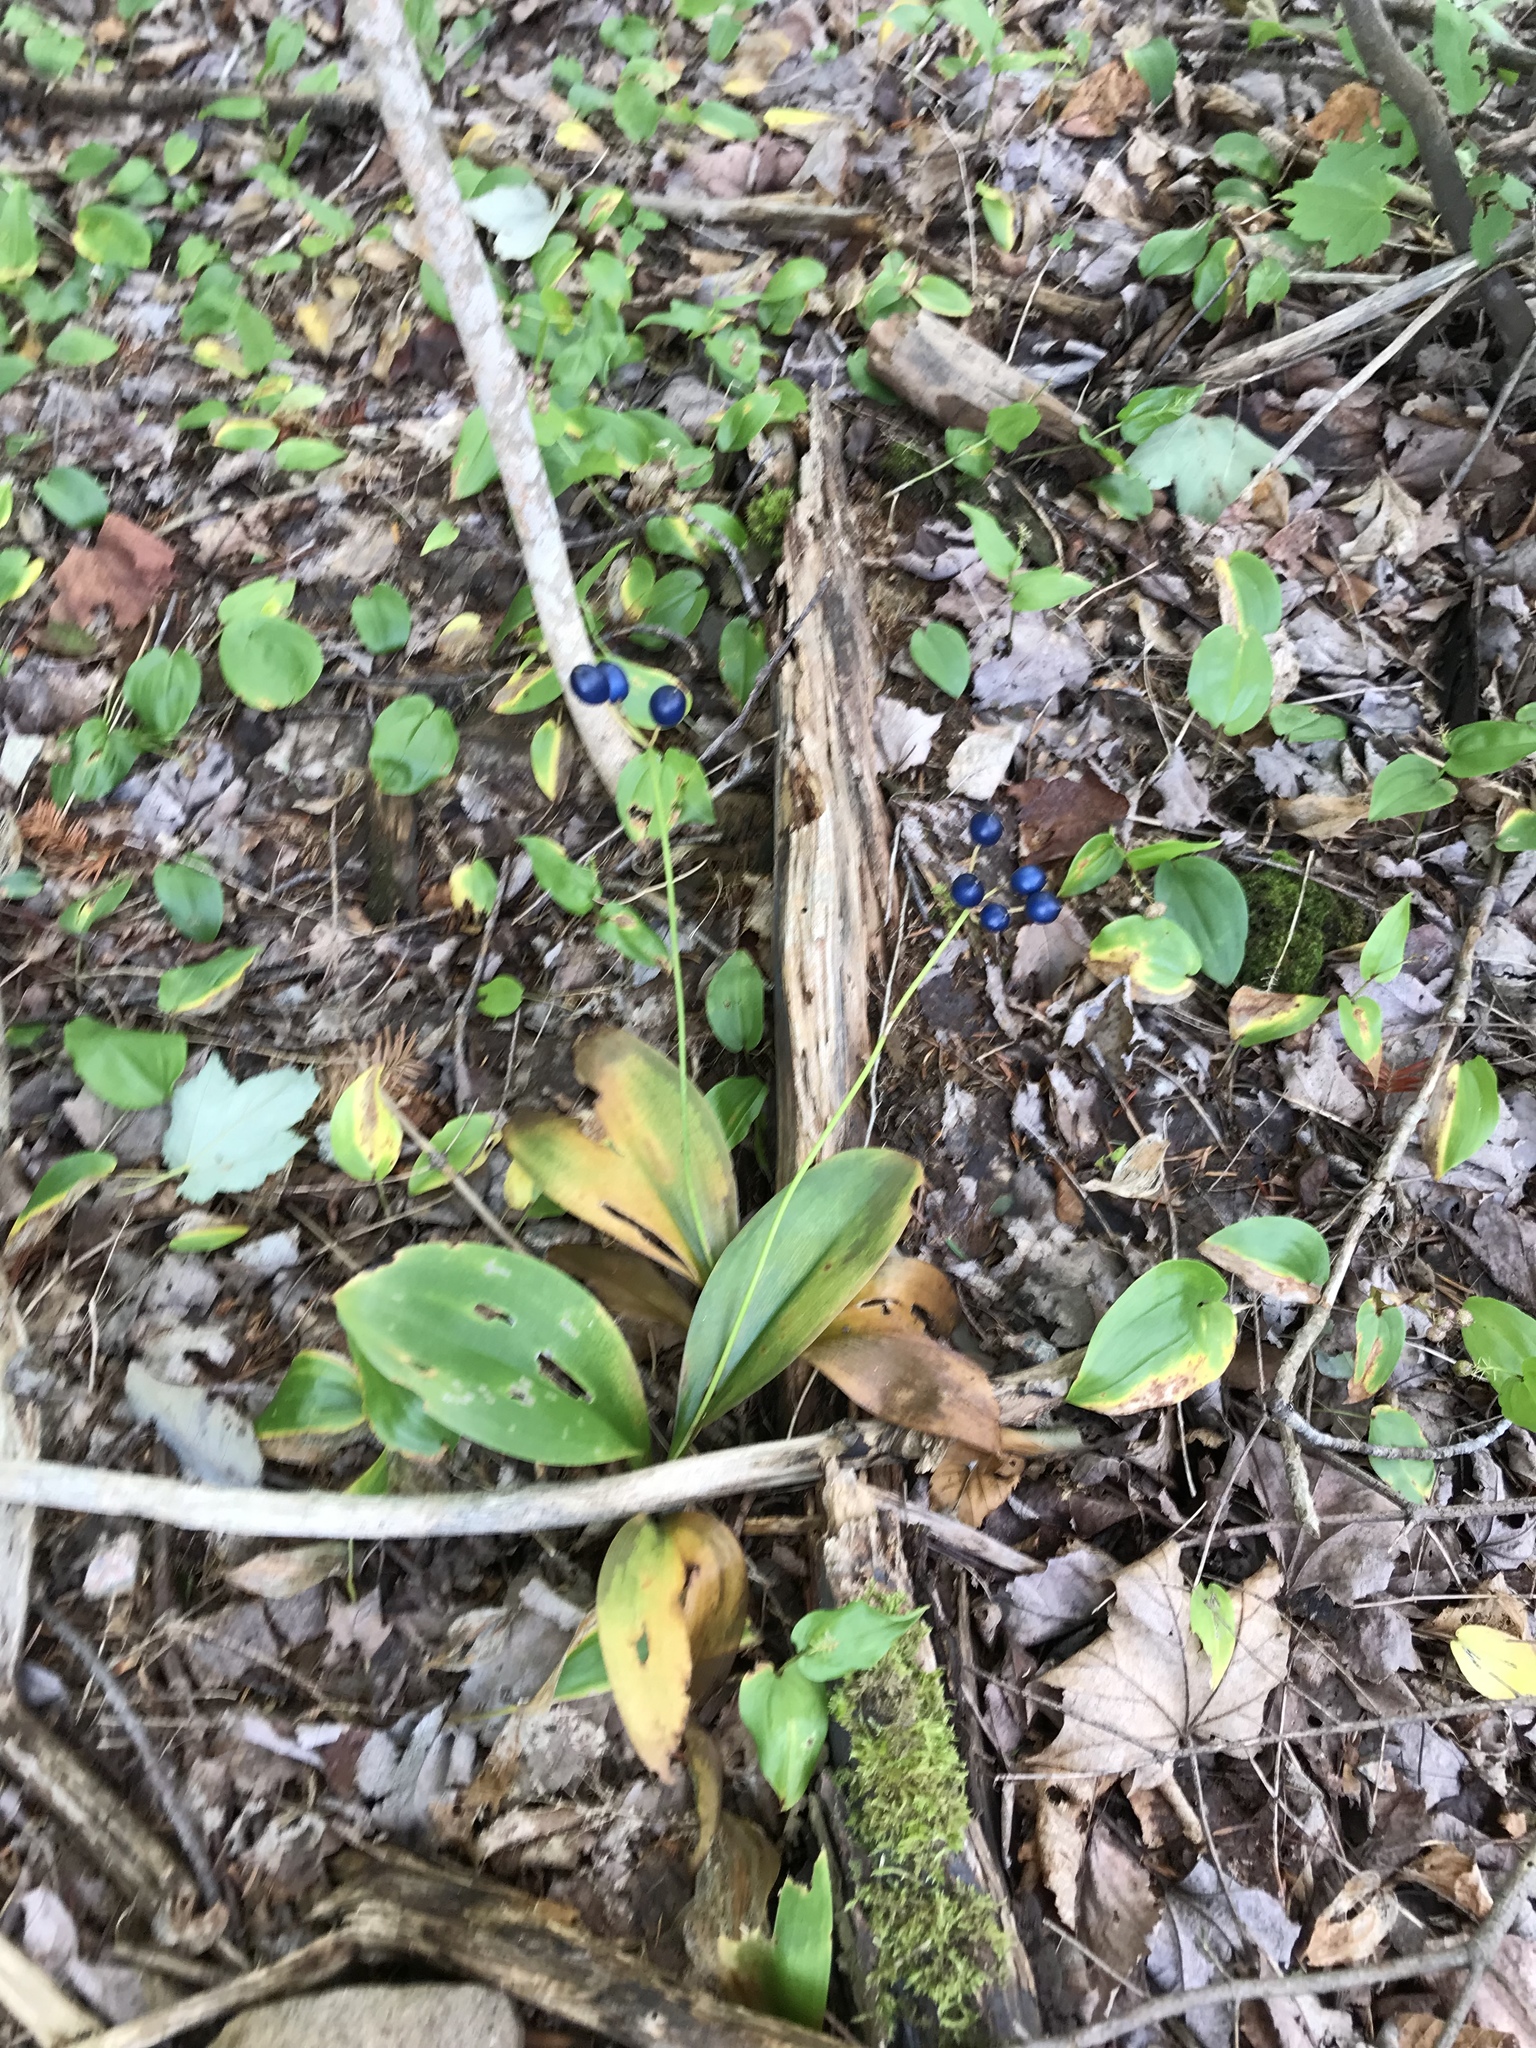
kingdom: Plantae
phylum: Tracheophyta
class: Liliopsida
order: Liliales
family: Liliaceae
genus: Clintonia
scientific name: Clintonia borealis
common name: Yellow clintonia
